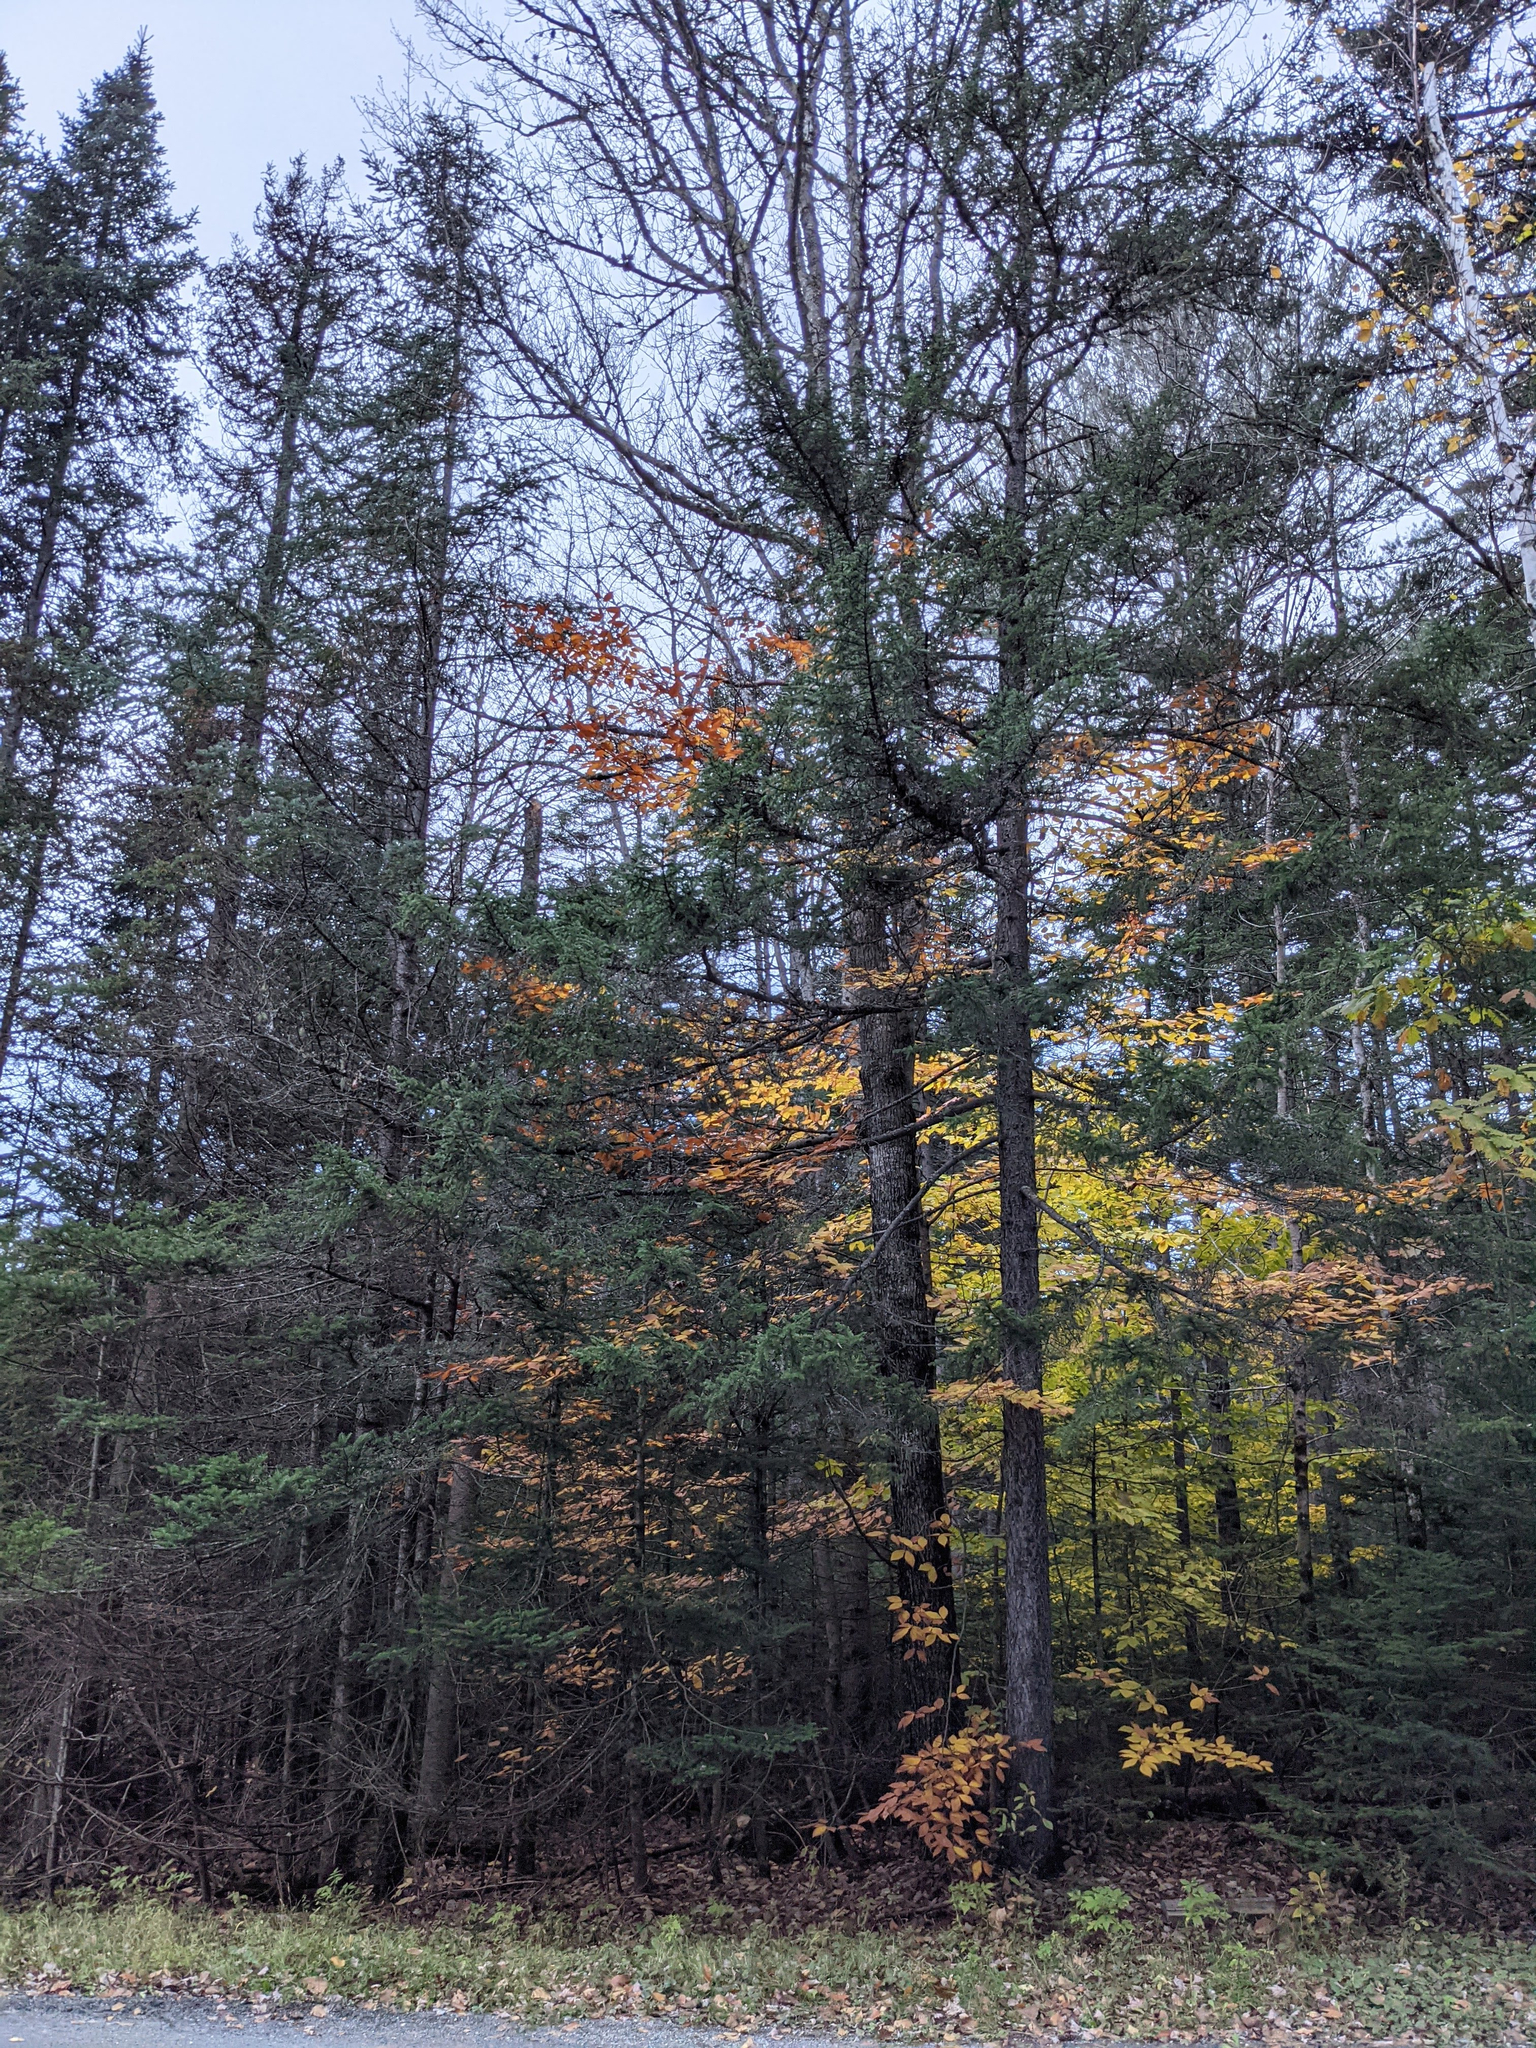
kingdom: Plantae
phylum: Tracheophyta
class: Pinopsida
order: Pinales
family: Pinaceae
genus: Abies
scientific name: Abies balsamea
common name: Balsam fir
